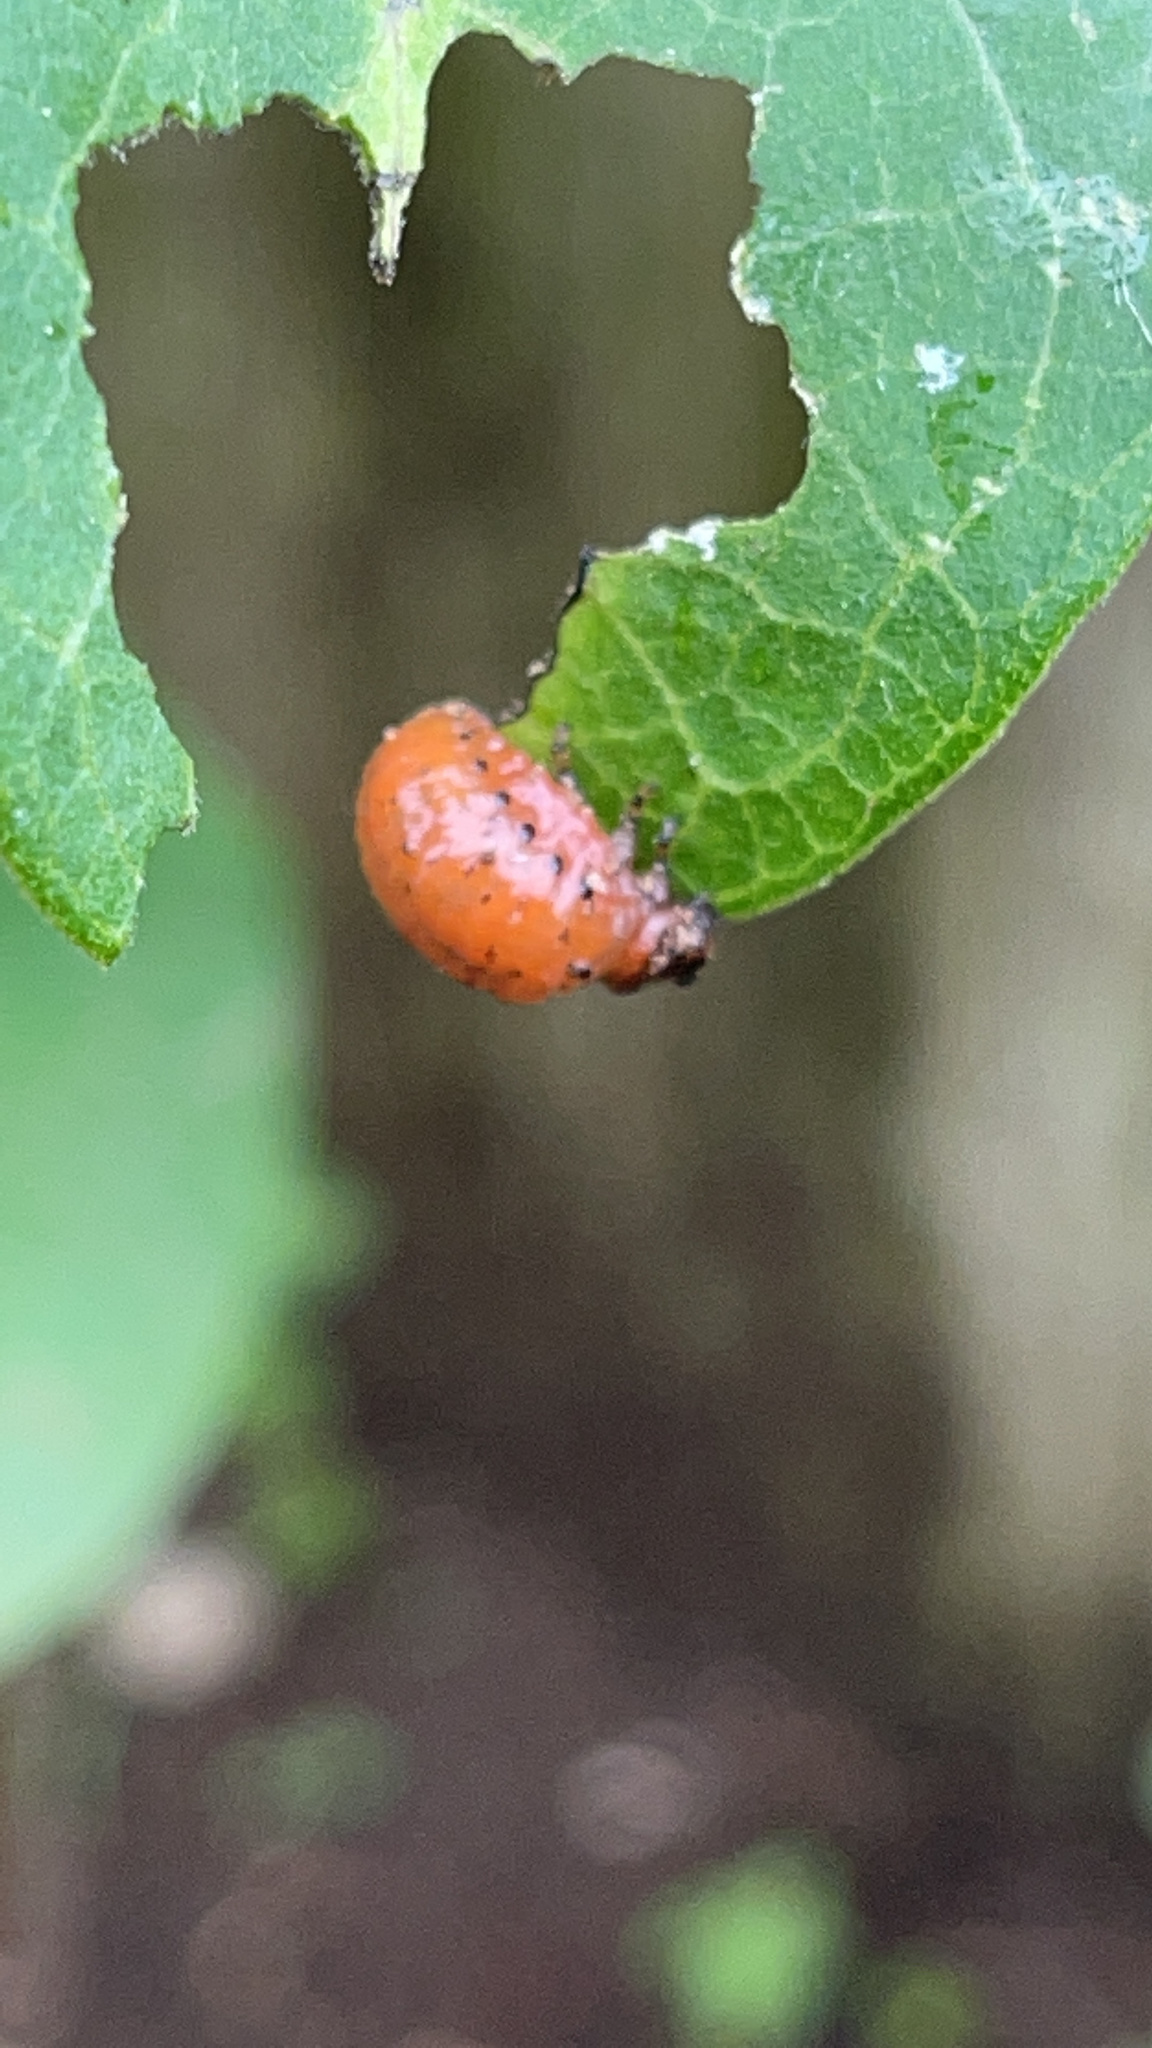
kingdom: Animalia
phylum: Arthropoda
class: Insecta
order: Coleoptera
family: Chrysomelidae
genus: Labidomera
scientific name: Labidomera clivicollis
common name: Swamp milkweed leaf beetle
